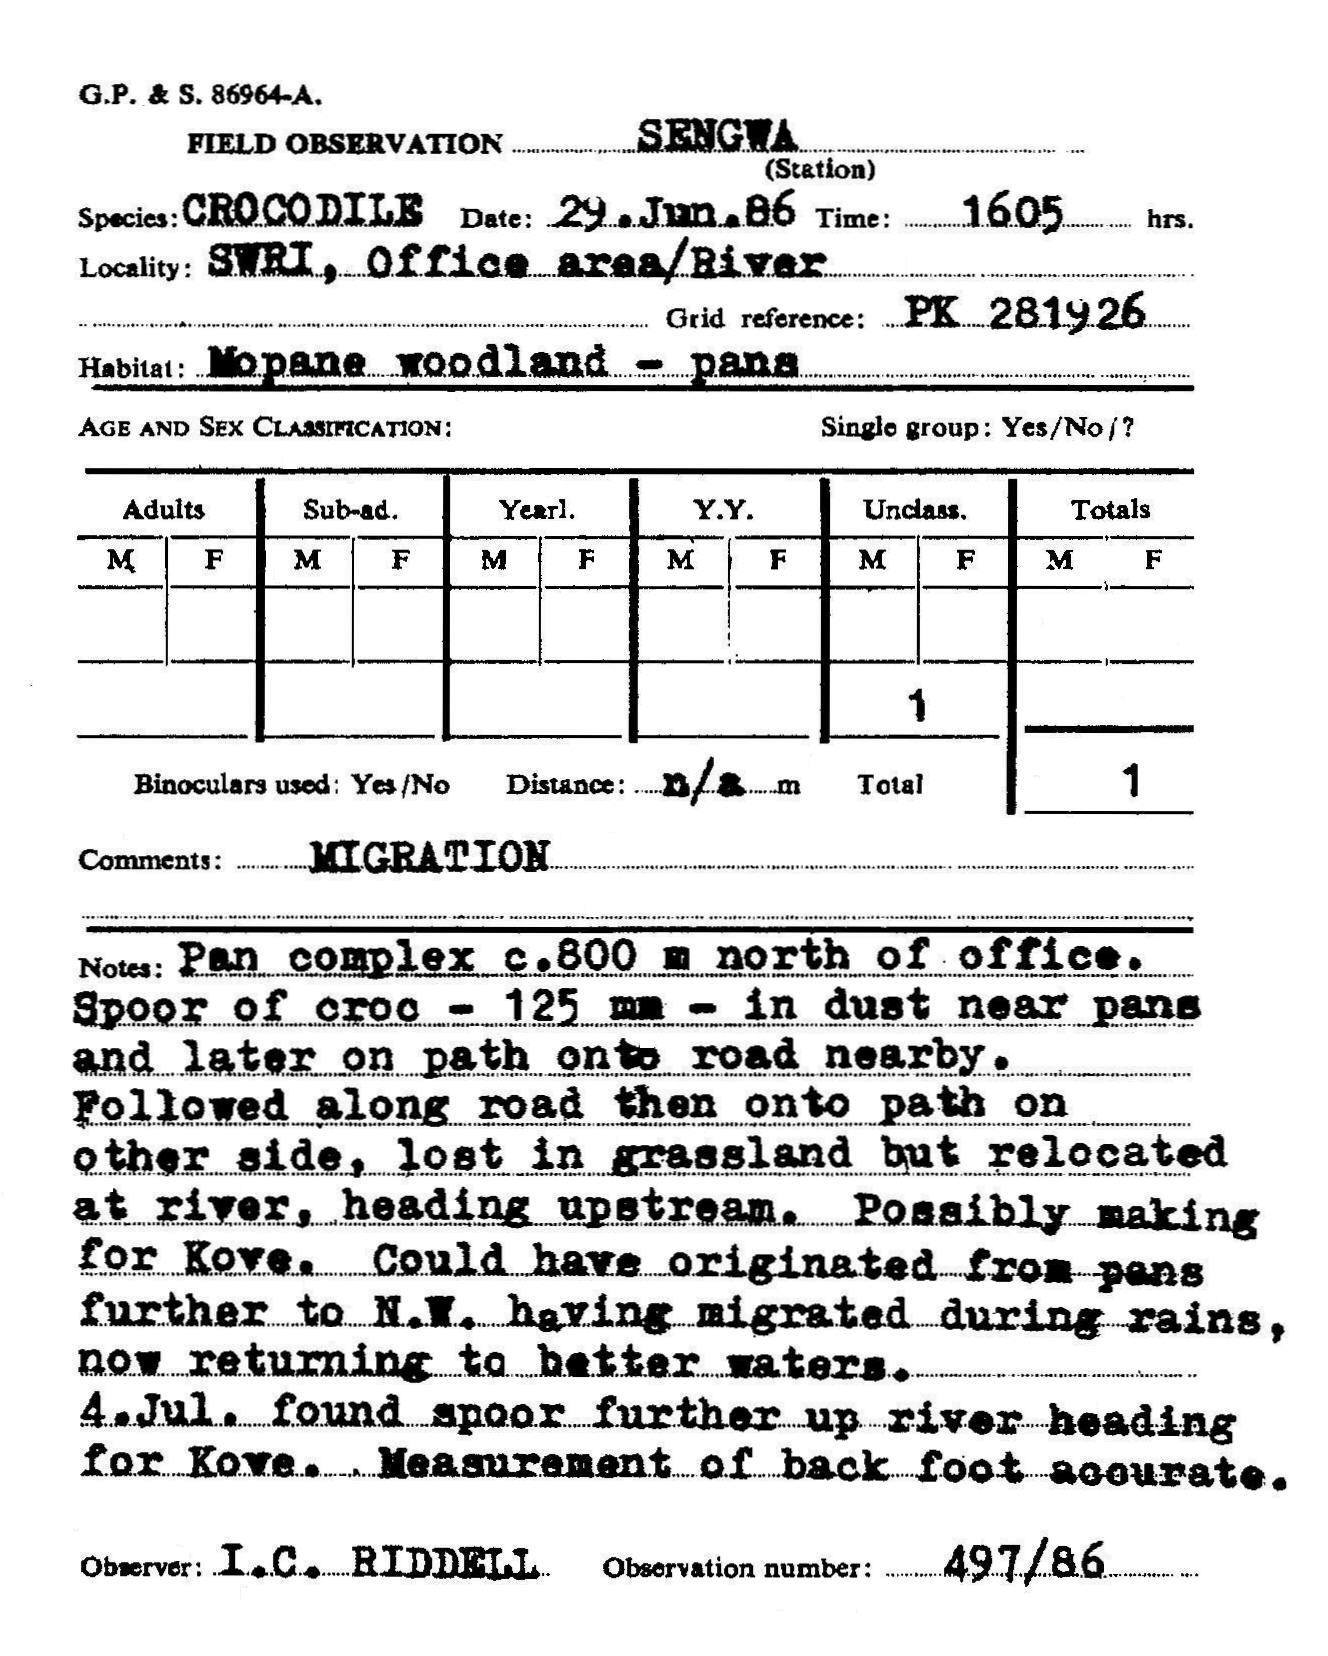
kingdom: Animalia
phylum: Chordata
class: Crocodylia
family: Crocodylidae
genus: Crocodylus
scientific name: Crocodylus niloticus
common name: Nile crocodile
